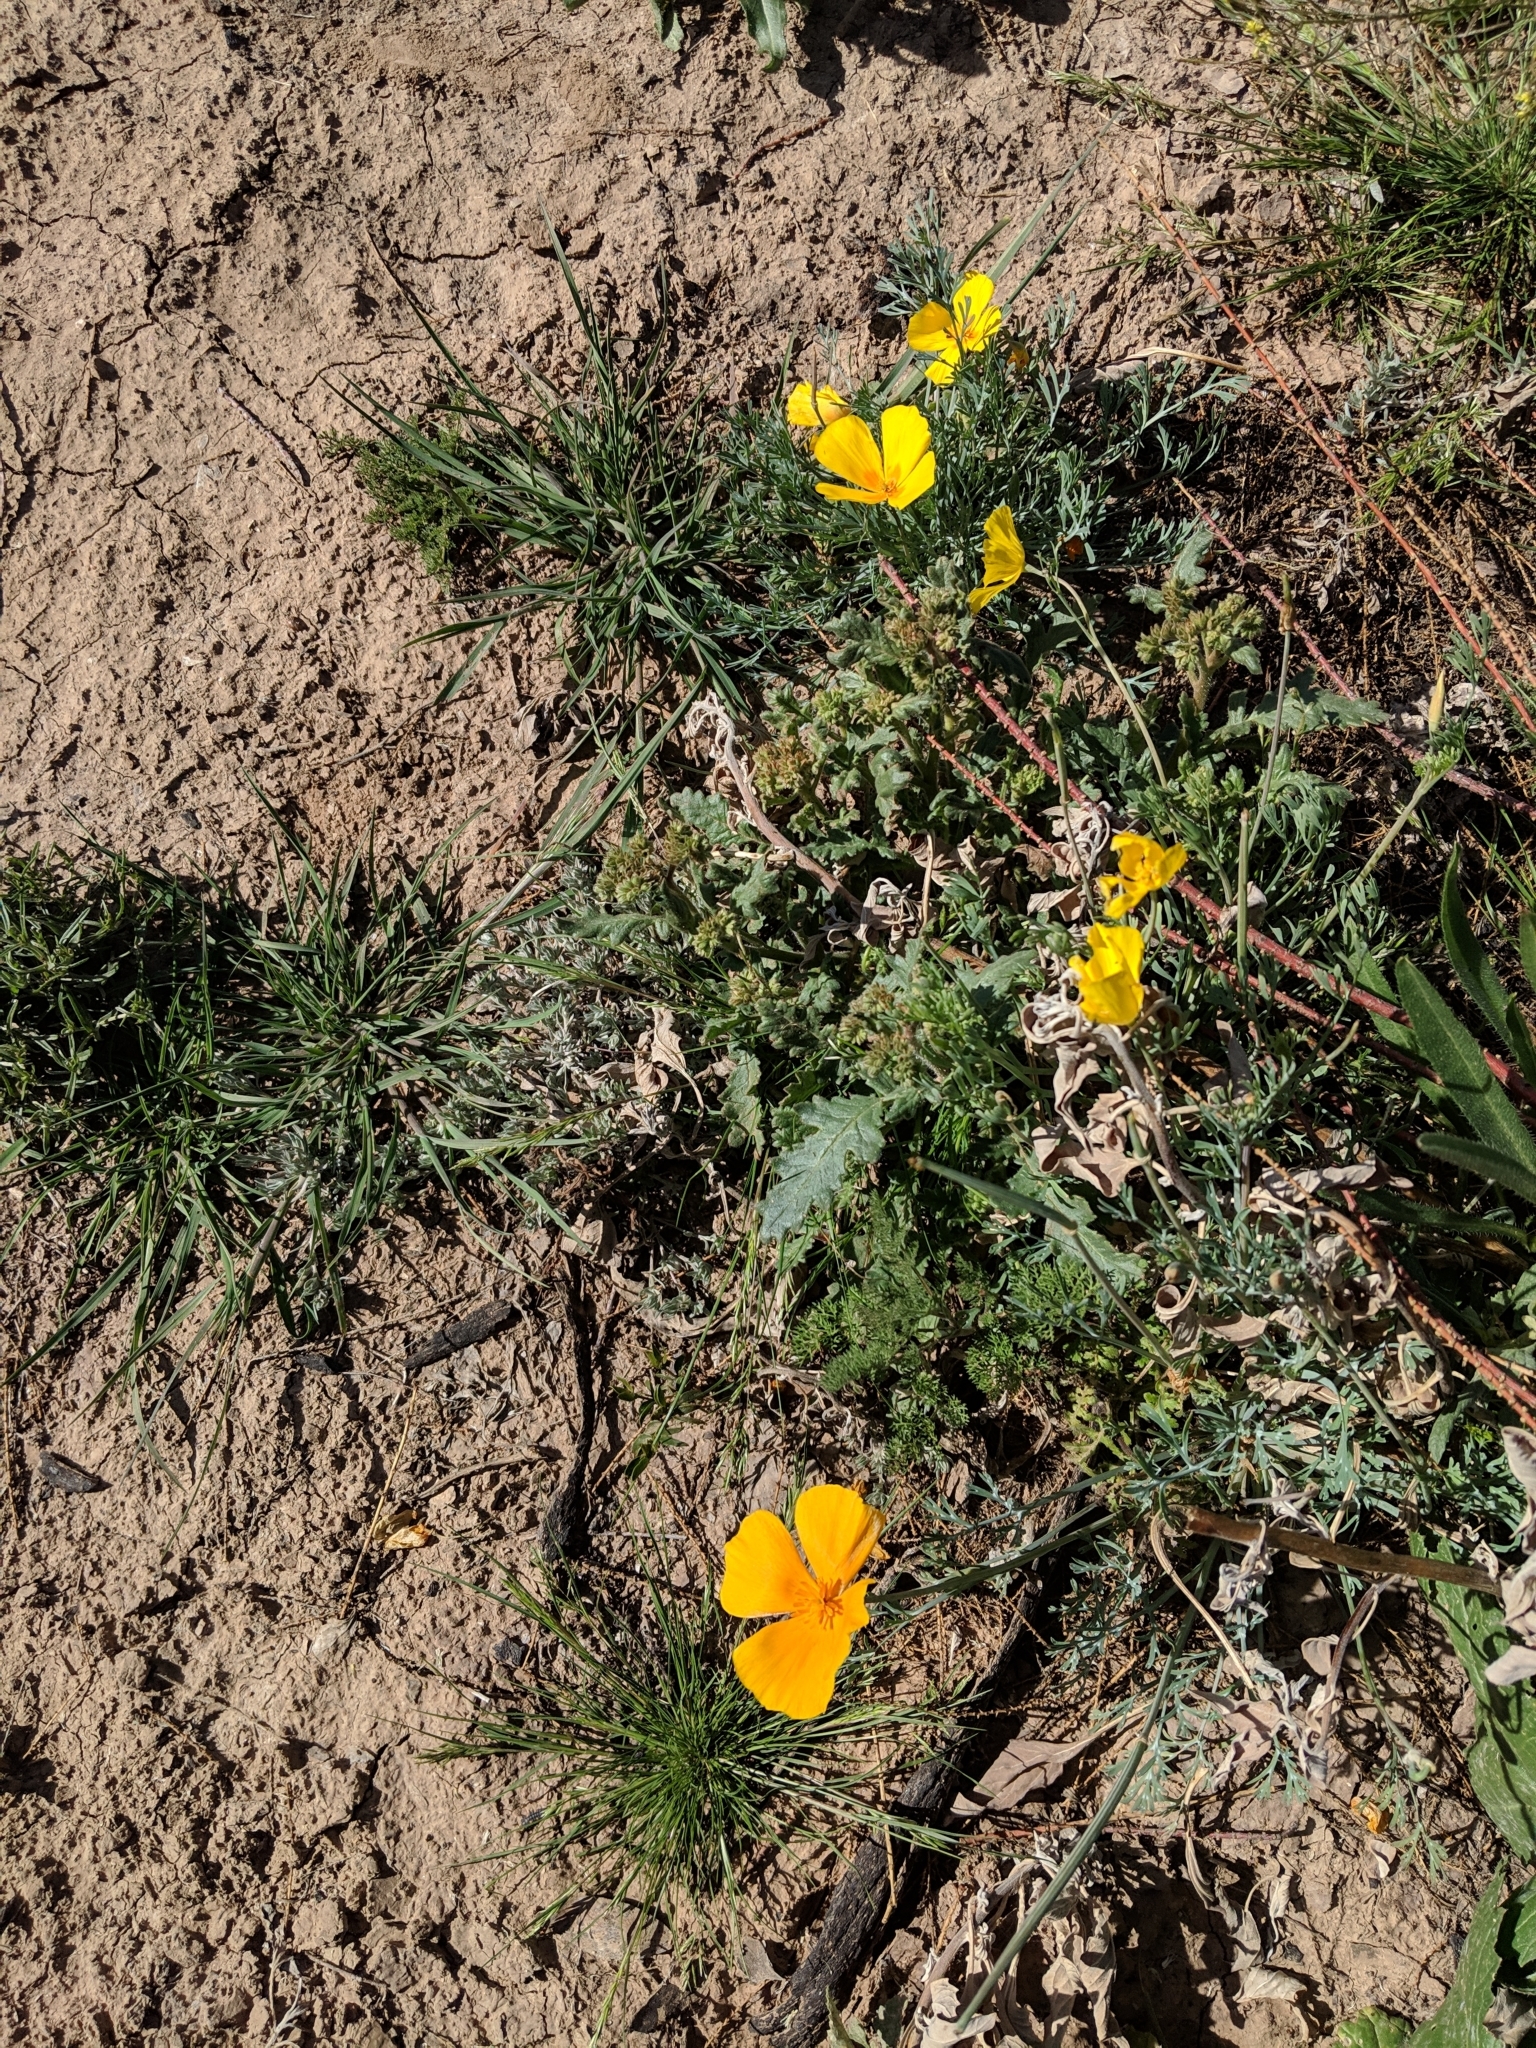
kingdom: Plantae
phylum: Tracheophyta
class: Magnoliopsida
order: Ranunculales
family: Papaveraceae
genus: Eschscholzia
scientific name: Eschscholzia californica
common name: California poppy
